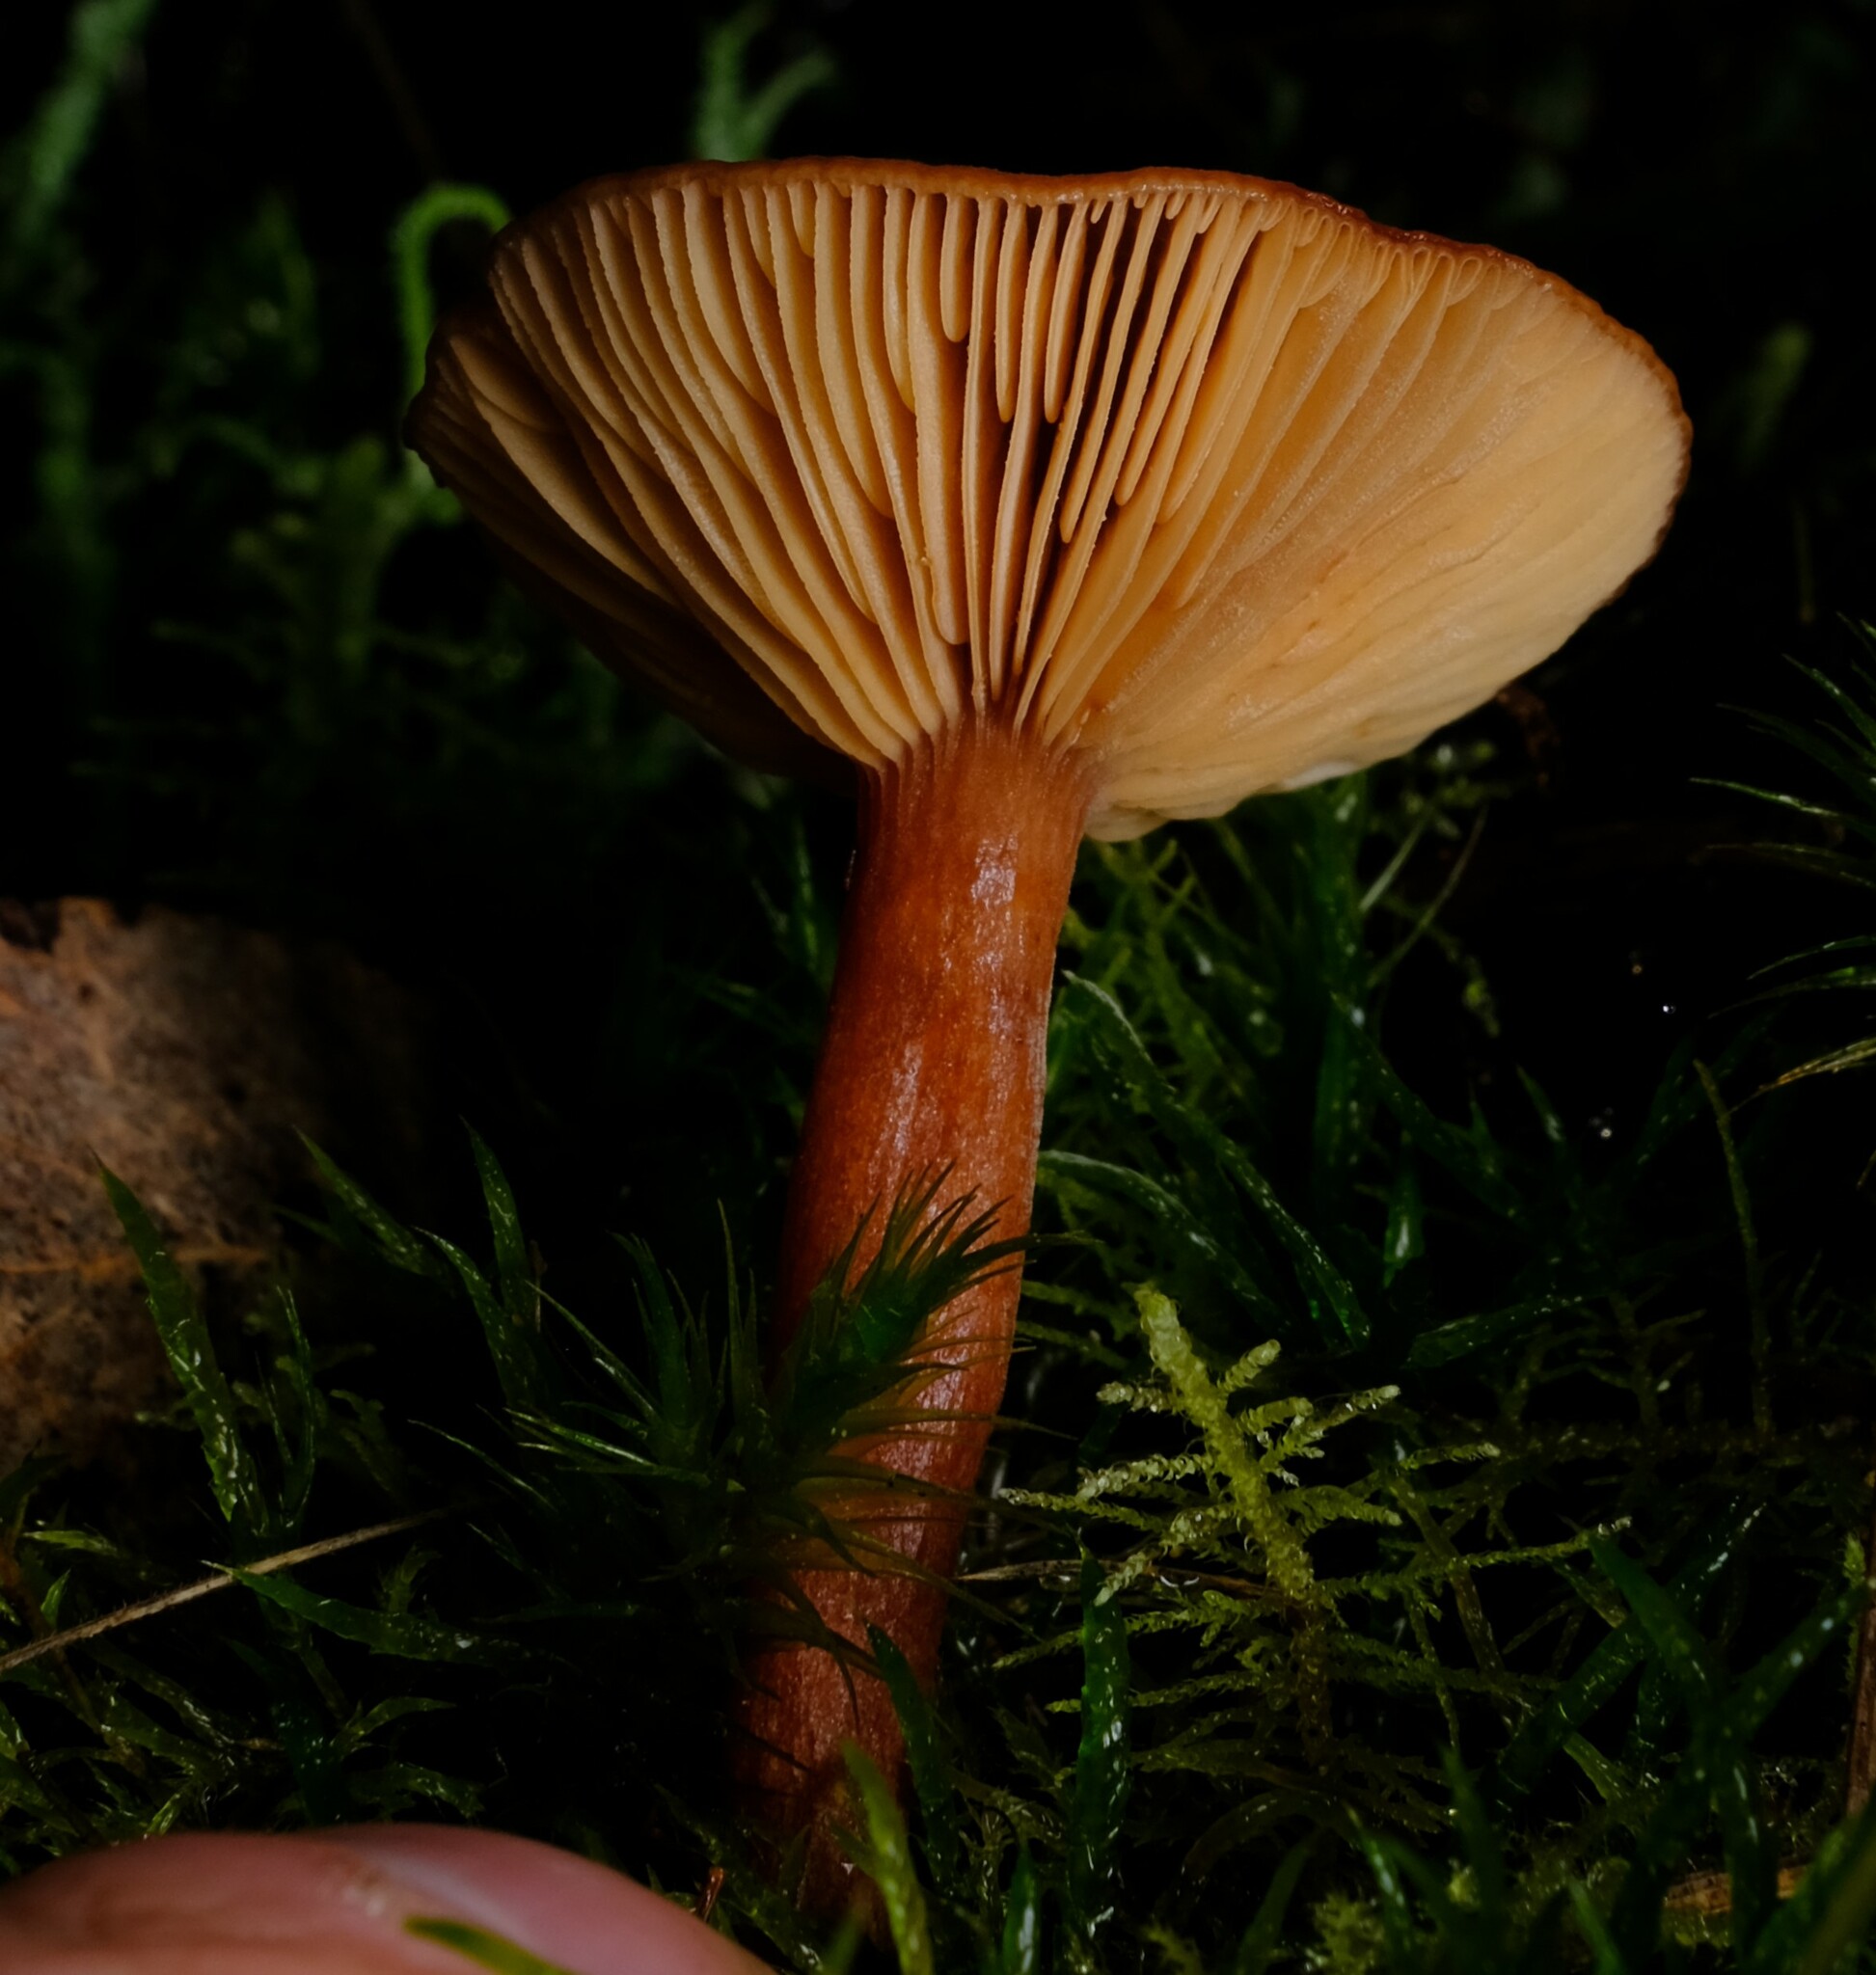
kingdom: Fungi
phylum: Basidiomycota
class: Agaricomycetes
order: Russulales
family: Russulaceae
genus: Lactarius
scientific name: Lactarius eucalypti
